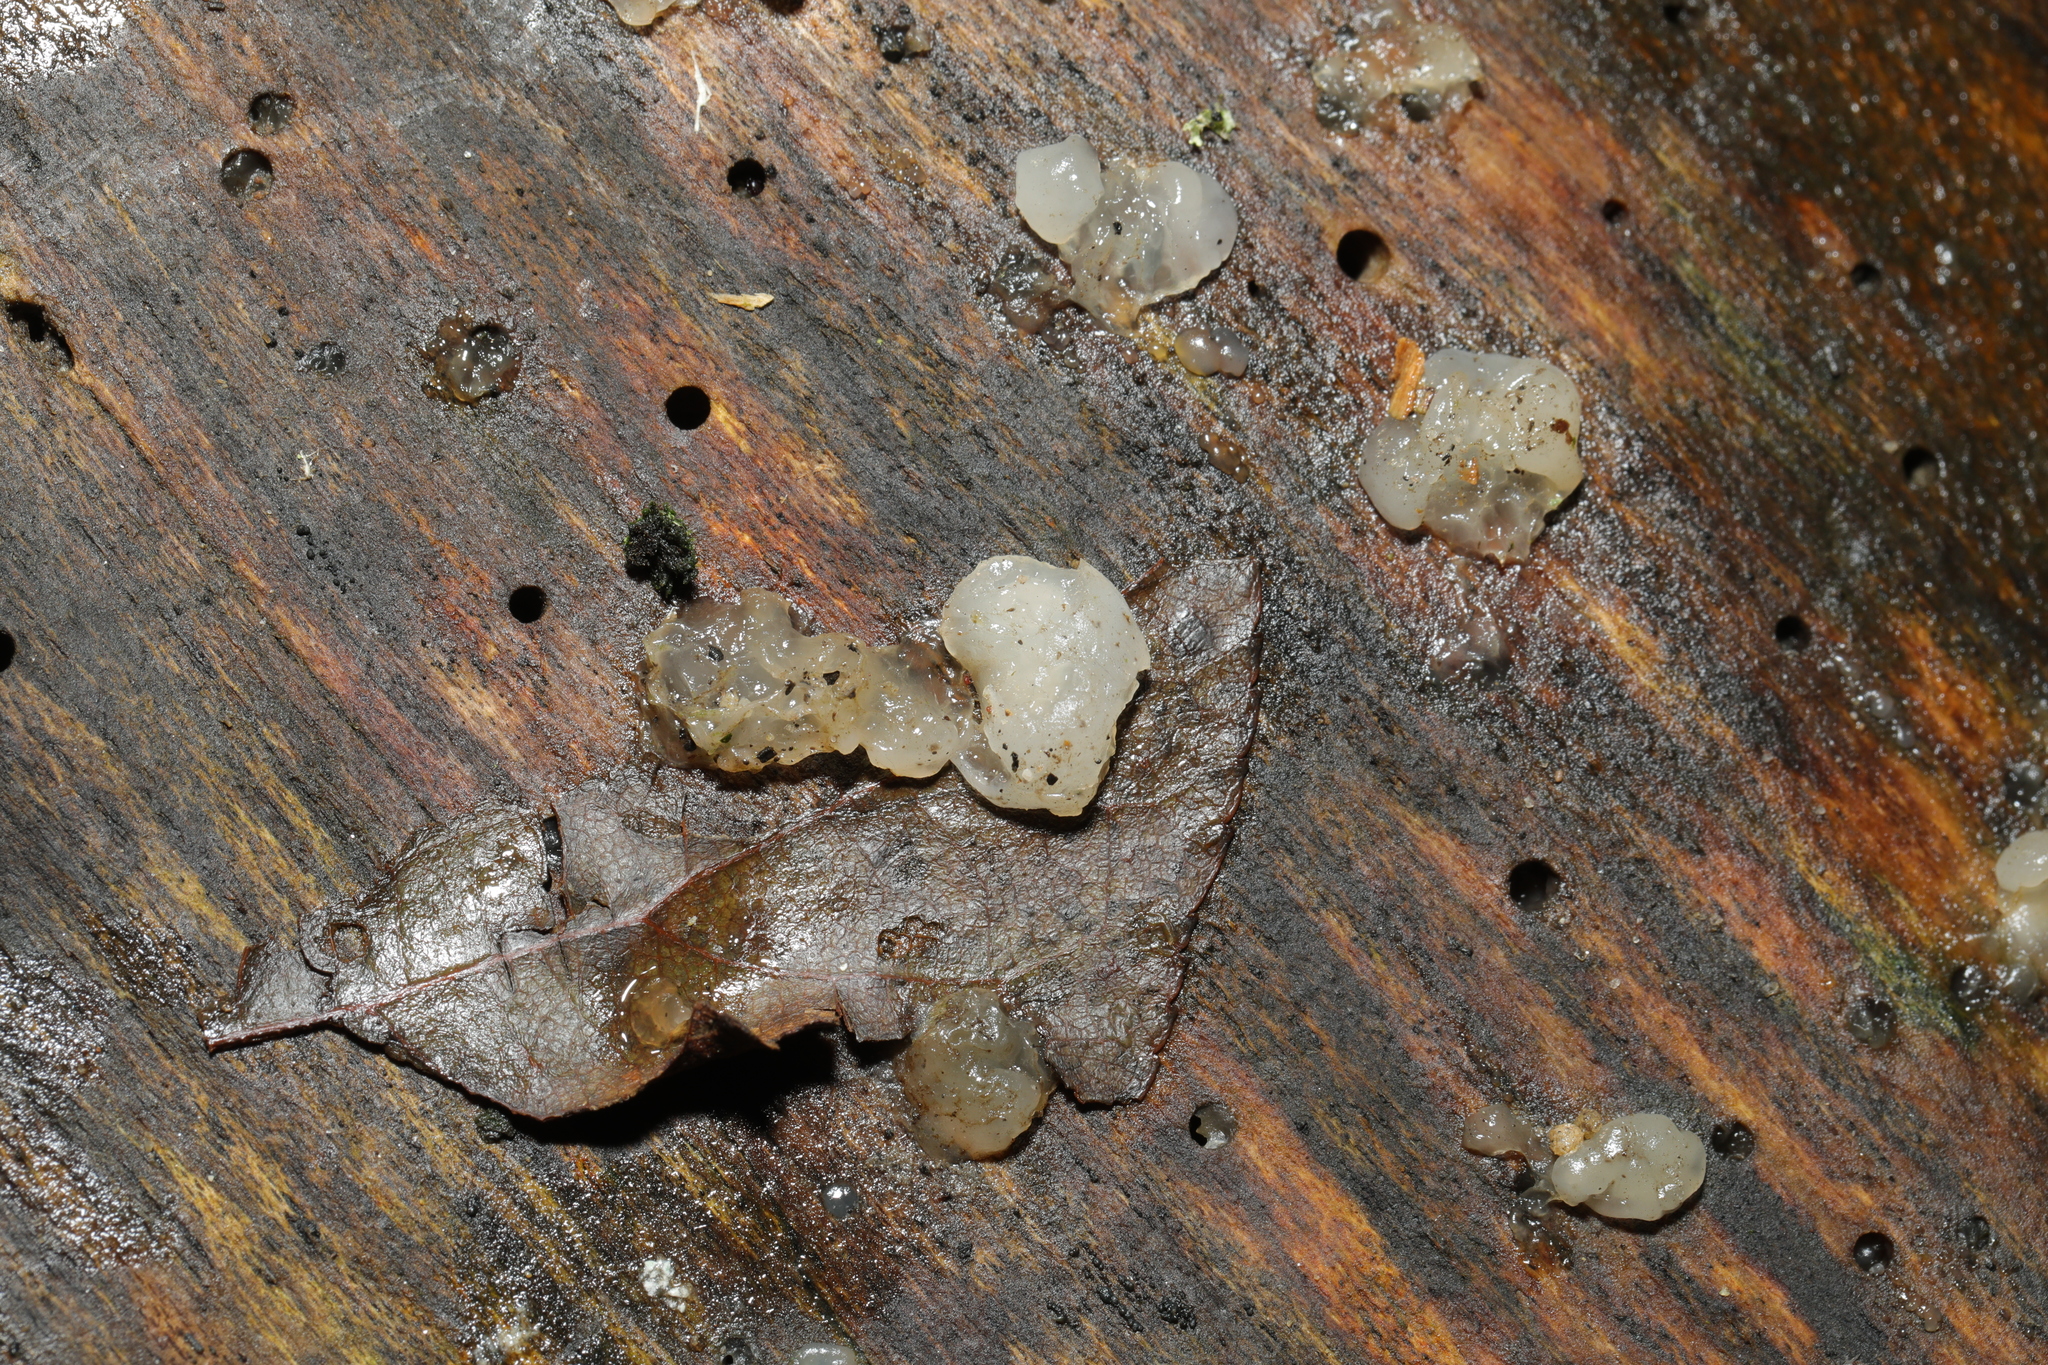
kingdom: Fungi
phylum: Basidiomycota
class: Agaricomycetes
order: Auriculariales
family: Hyaloriaceae
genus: Myxarium
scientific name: Myxarium nucleatum
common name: Crystal brain fungus
